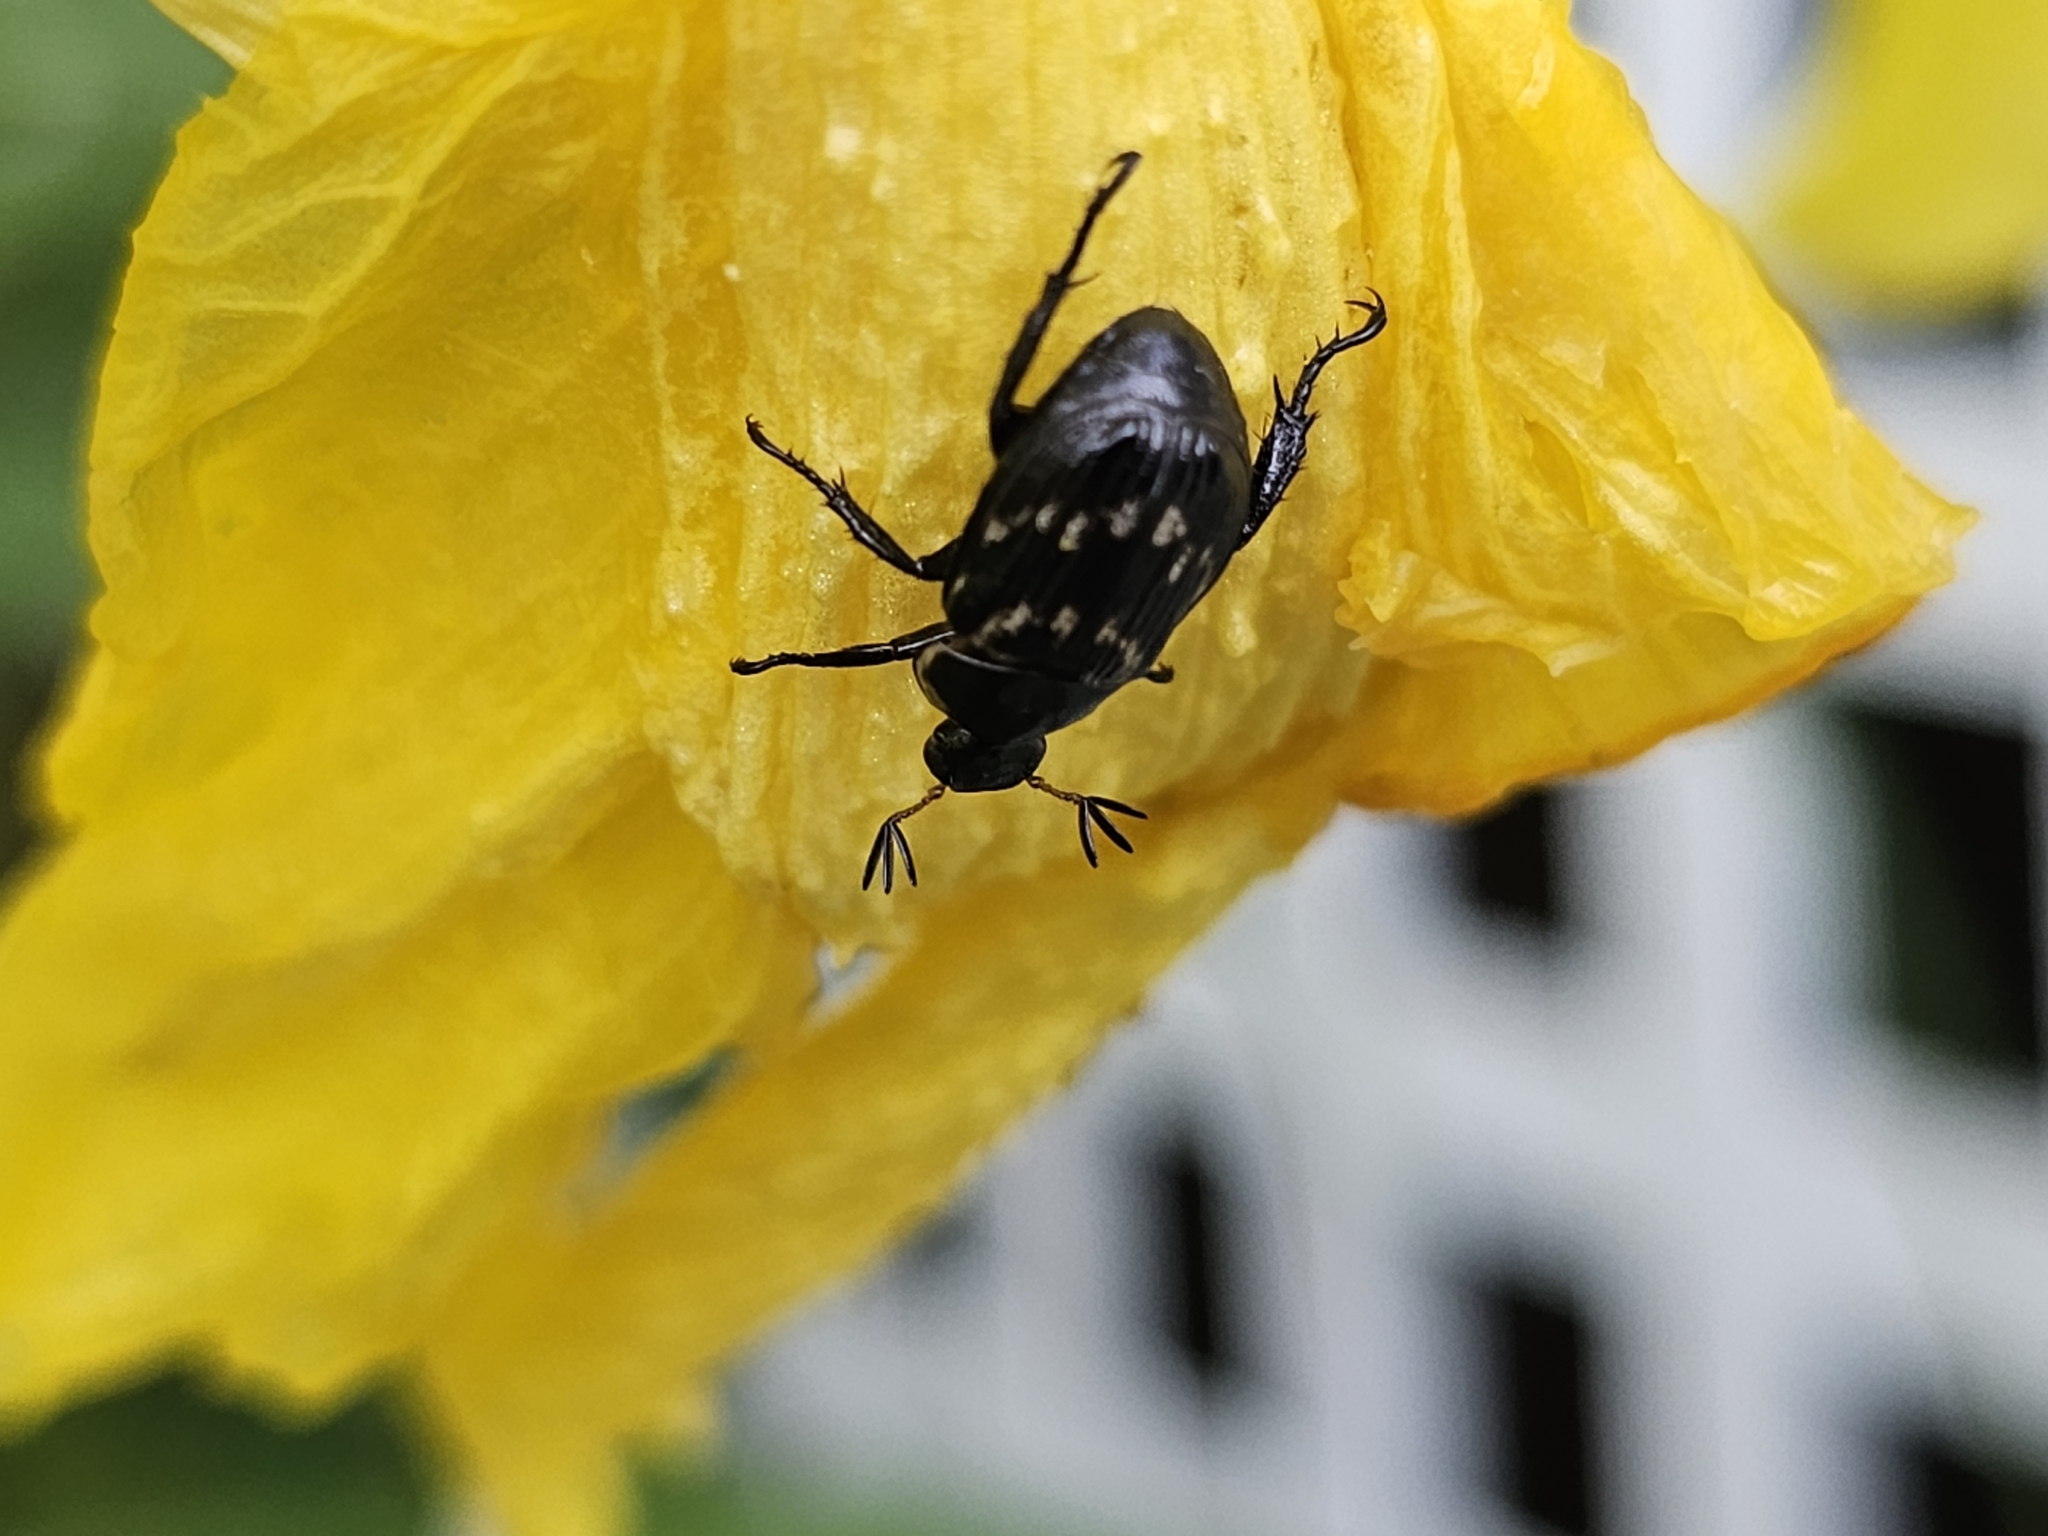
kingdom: Animalia
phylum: Arthropoda
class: Insecta
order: Coleoptera
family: Scarabaeidae
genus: Exomala
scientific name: Exomala orientalis
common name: Oriental beetle
